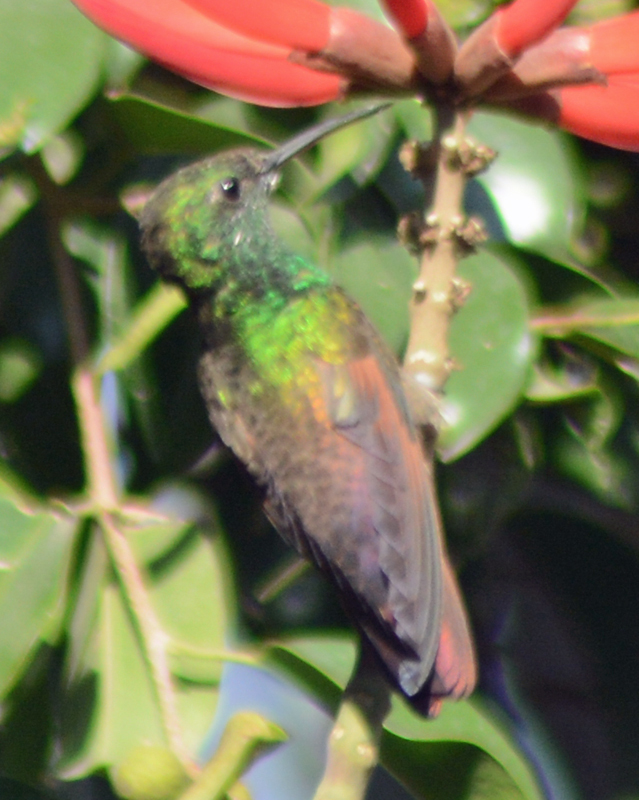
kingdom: Animalia
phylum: Chordata
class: Aves
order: Apodiformes
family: Trochilidae
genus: Saucerottia
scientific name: Saucerottia beryllina
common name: Berylline hummingbird
